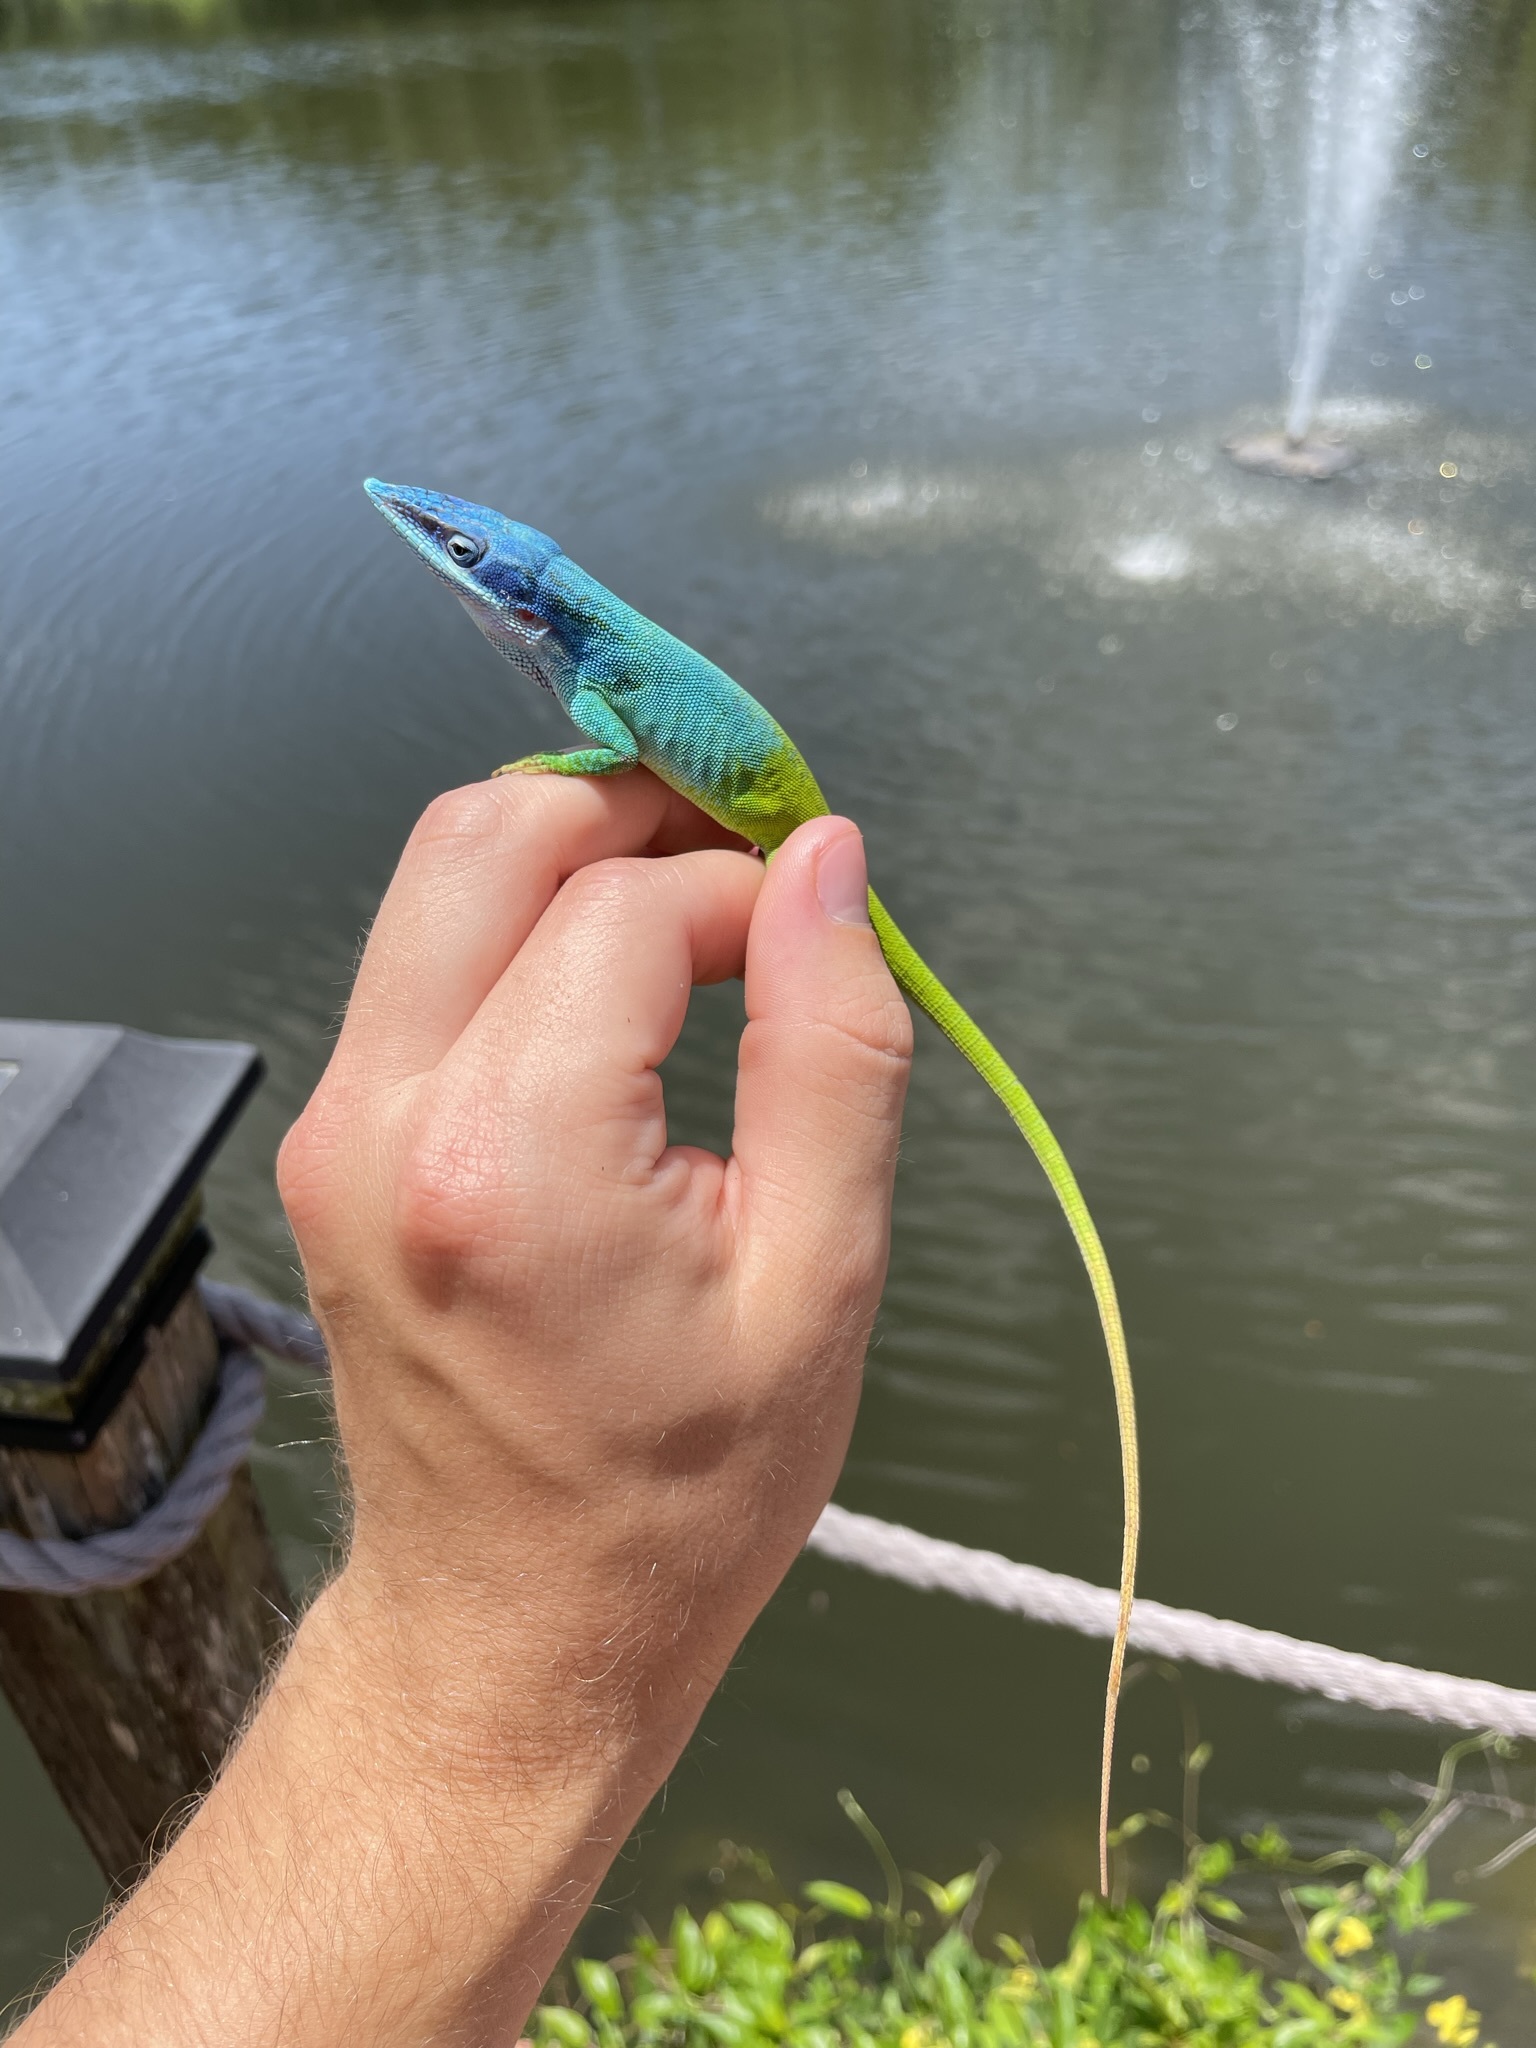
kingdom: Animalia
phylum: Chordata
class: Squamata
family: Dactyloidae
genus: Anolis
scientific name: Anolis allisoni
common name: Allison's anole
